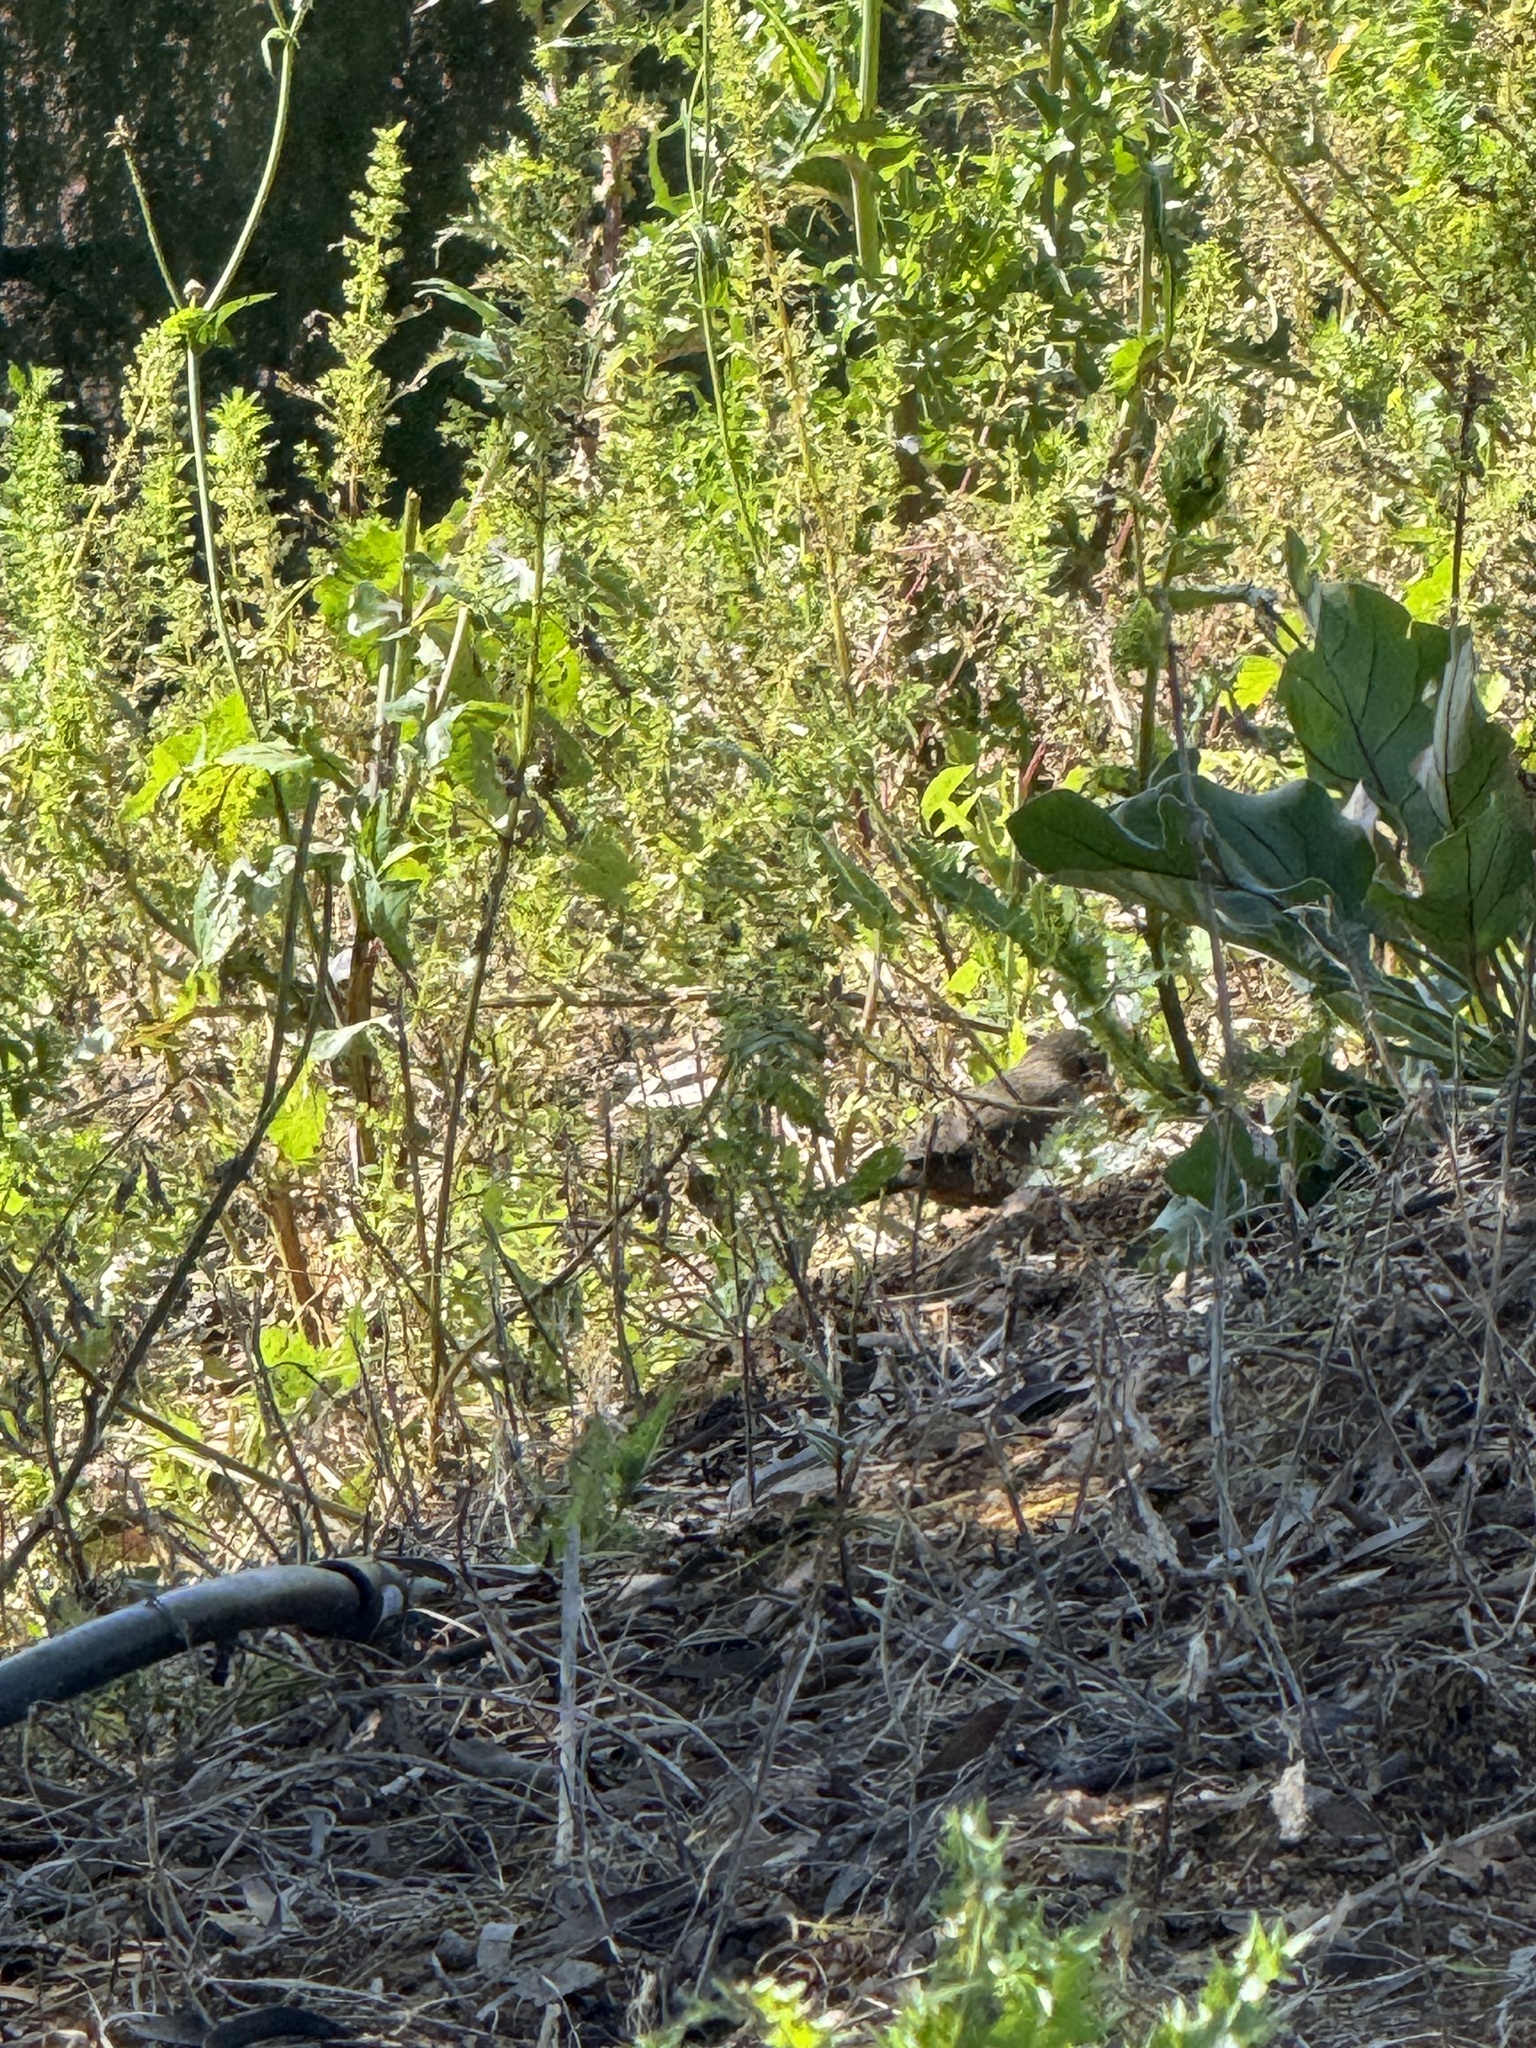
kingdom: Animalia
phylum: Chordata
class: Aves
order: Passeriformes
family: Passerellidae
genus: Melozone
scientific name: Melozone crissalis
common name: California towhee
